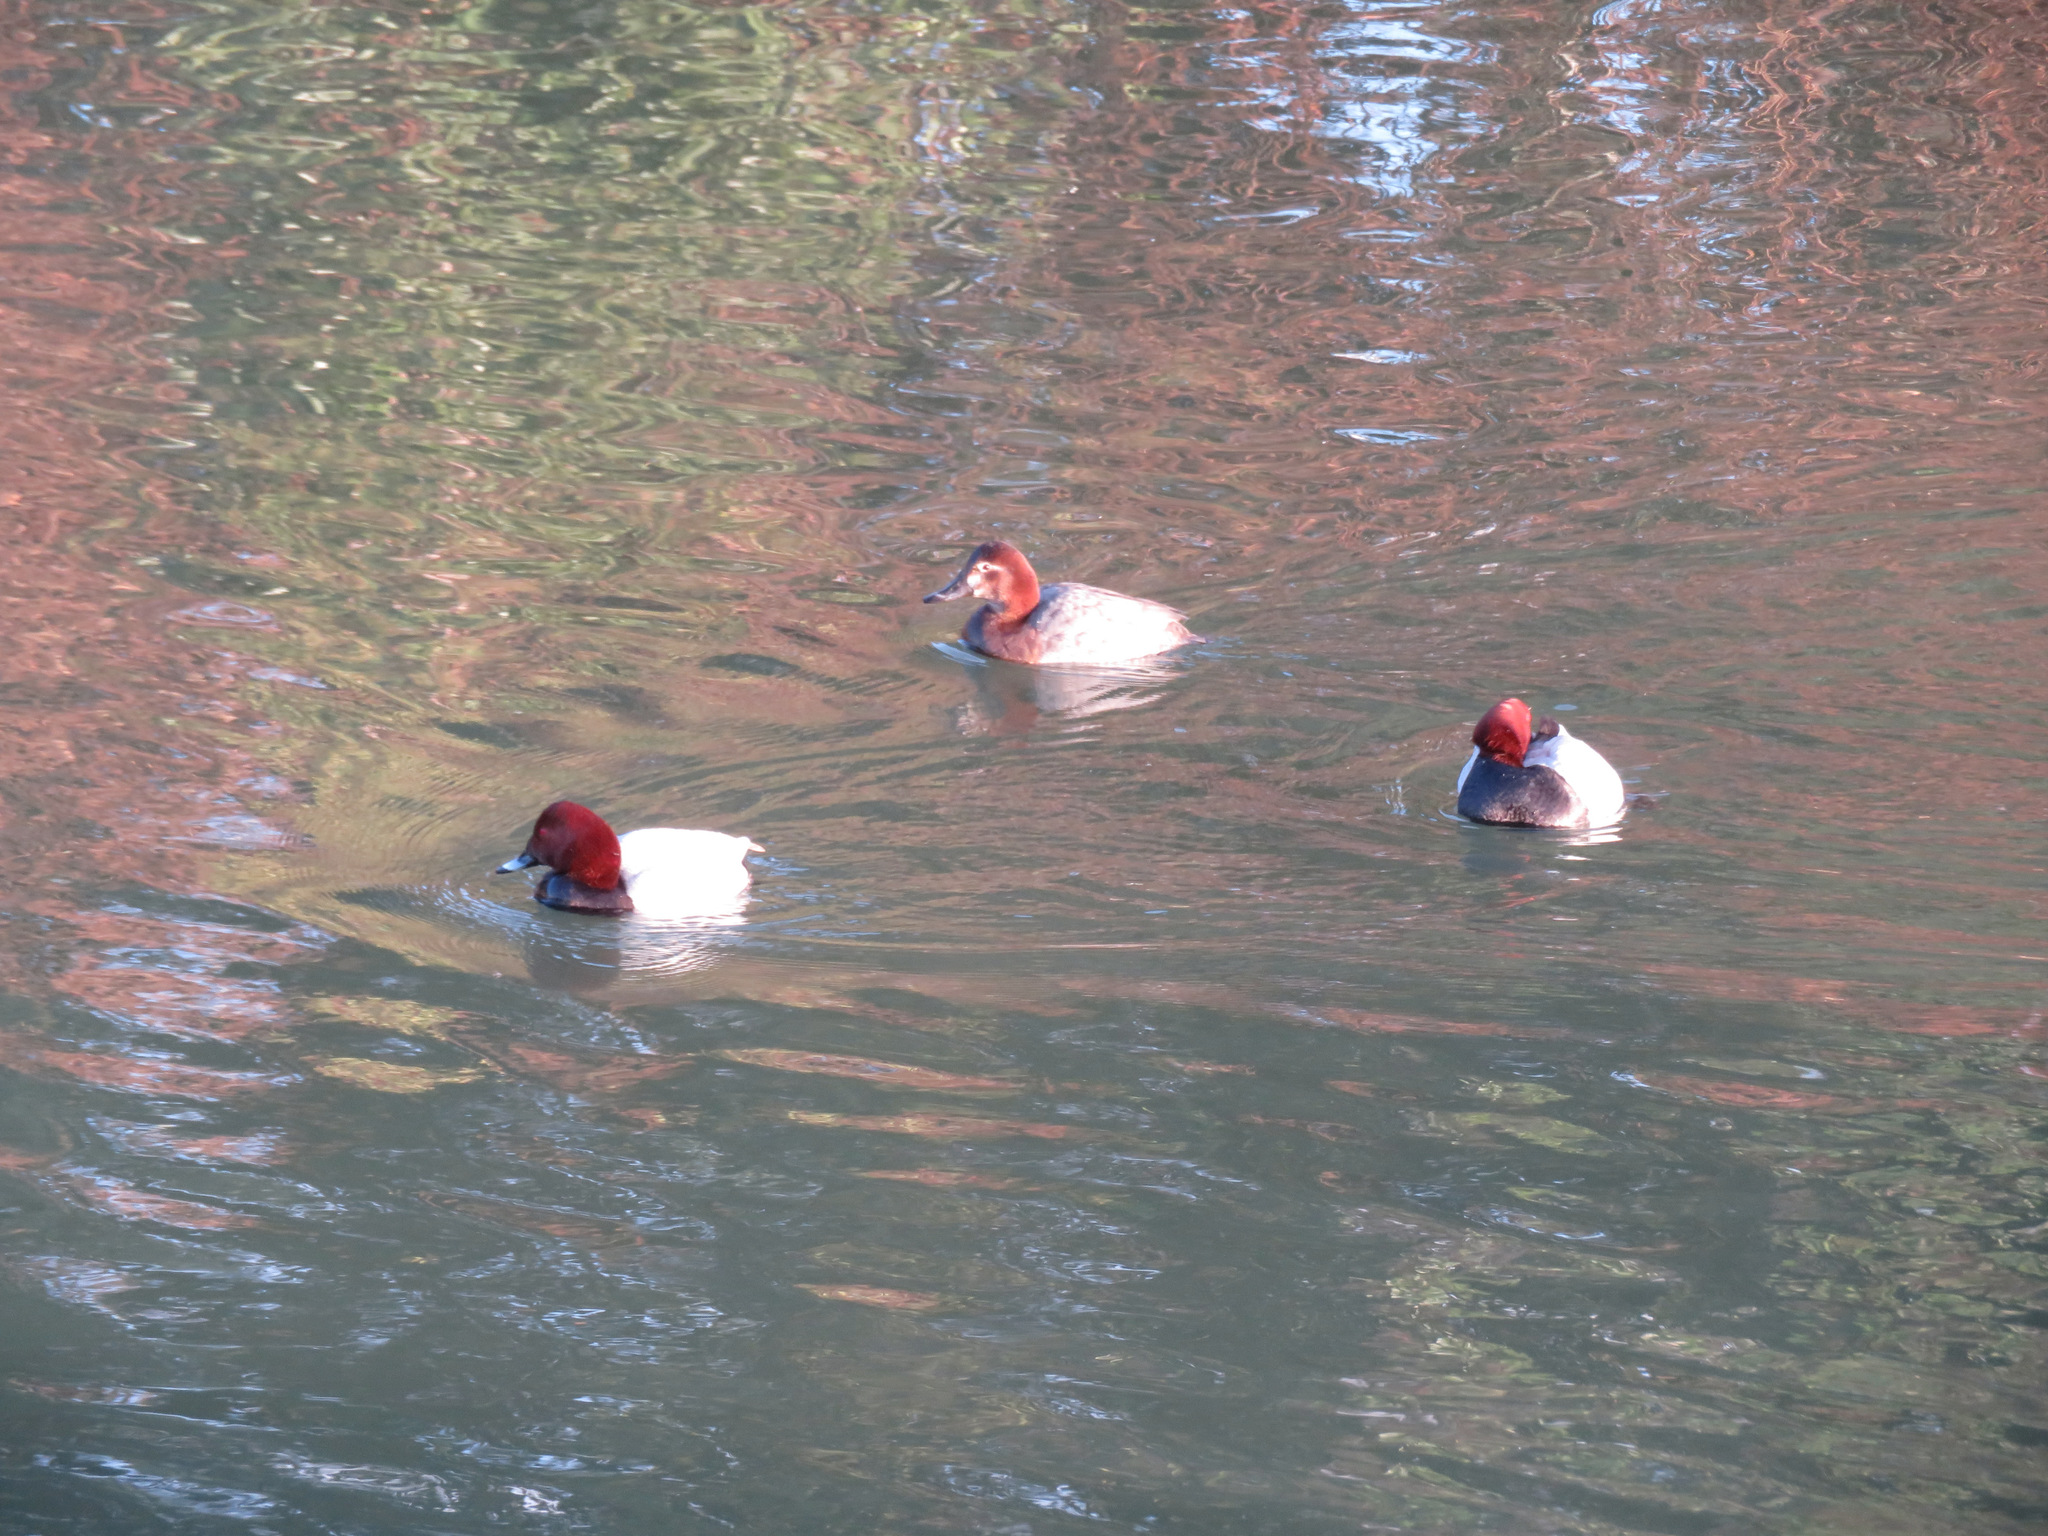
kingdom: Animalia
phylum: Chordata
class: Aves
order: Anseriformes
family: Anatidae
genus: Aythya
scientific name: Aythya ferina
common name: Common pochard
